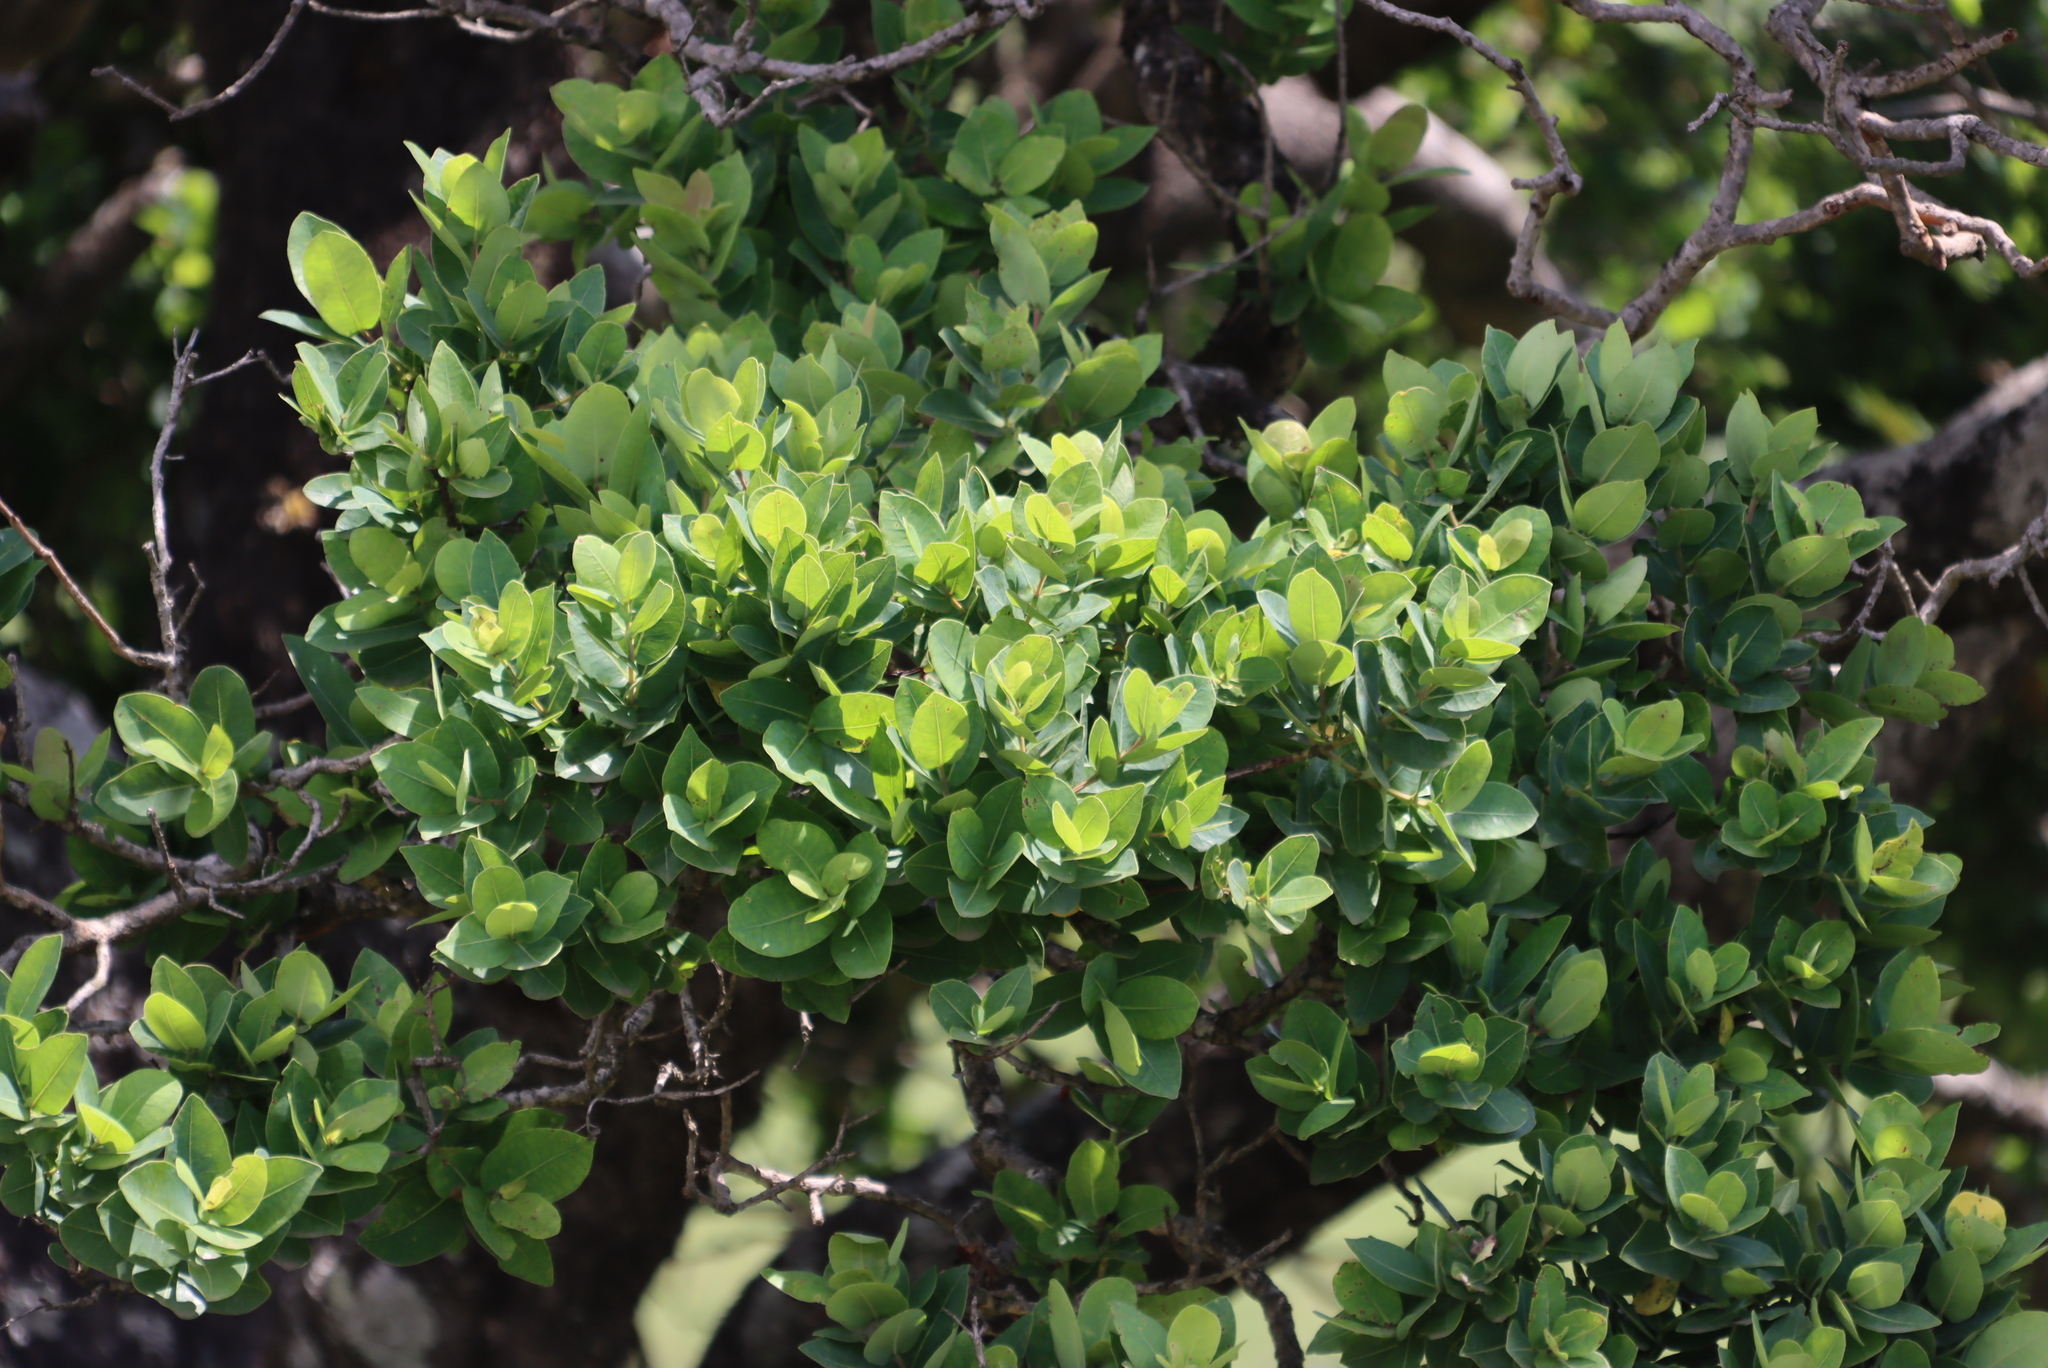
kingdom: Plantae
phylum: Tracheophyta
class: Magnoliopsida
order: Myrtales
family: Myrtaceae
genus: Syzygium
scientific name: Syzygium cordatum
